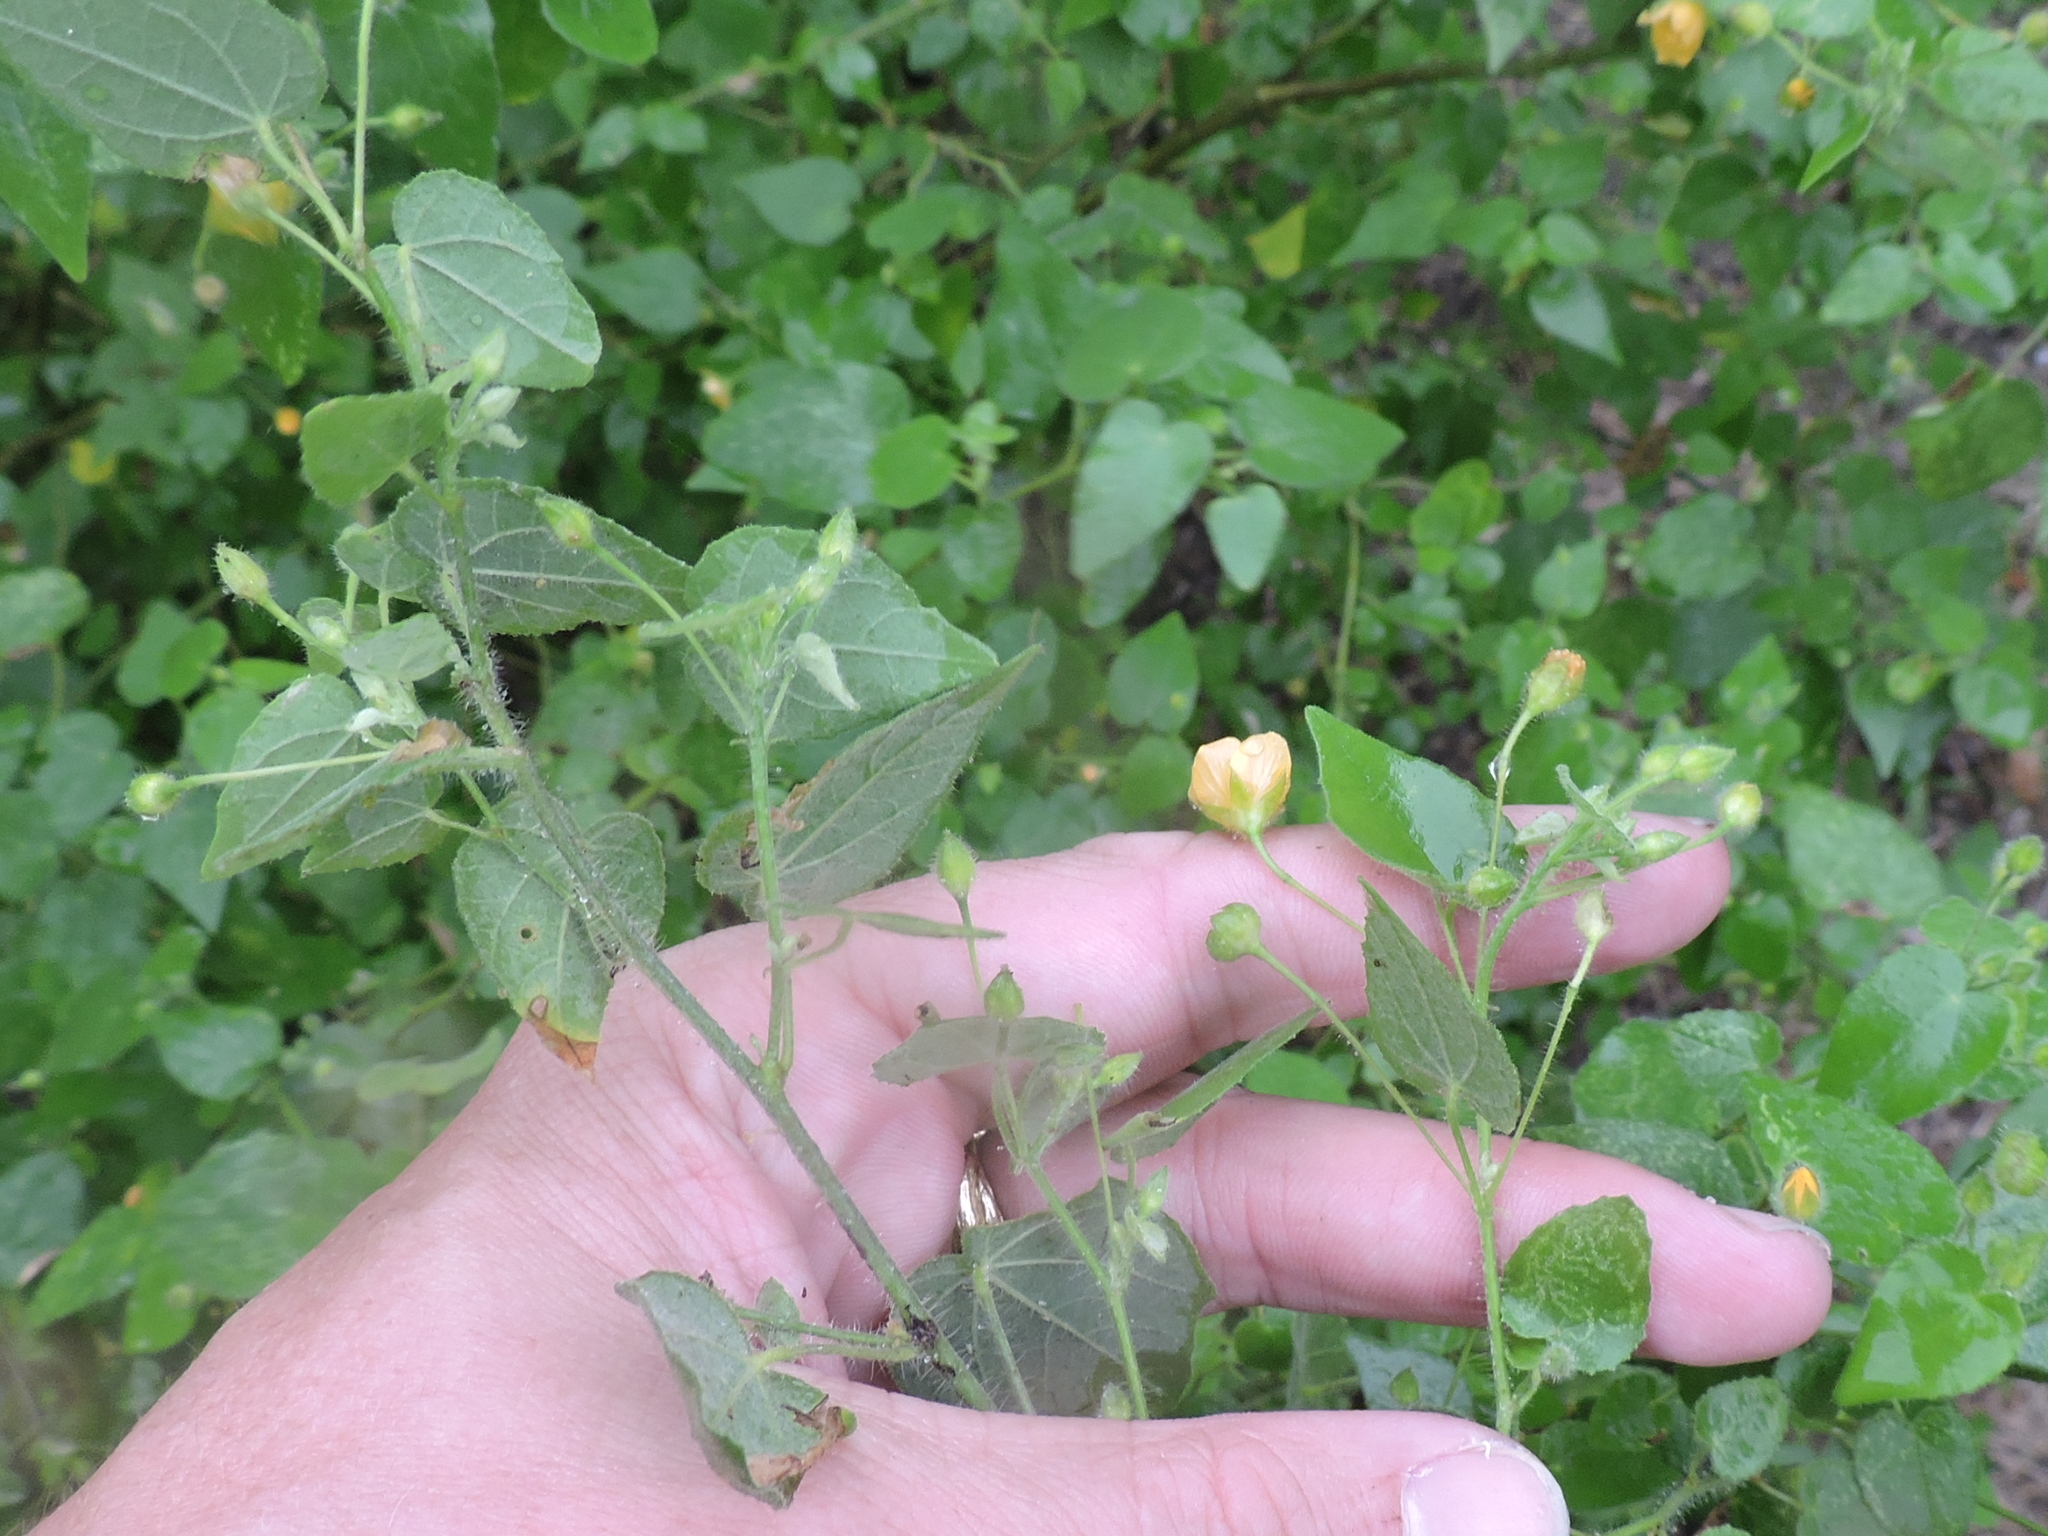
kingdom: Plantae
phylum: Tracheophyta
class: Magnoliopsida
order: Malvales
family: Malvaceae
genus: Abutilon
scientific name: Abutilon viscosum
